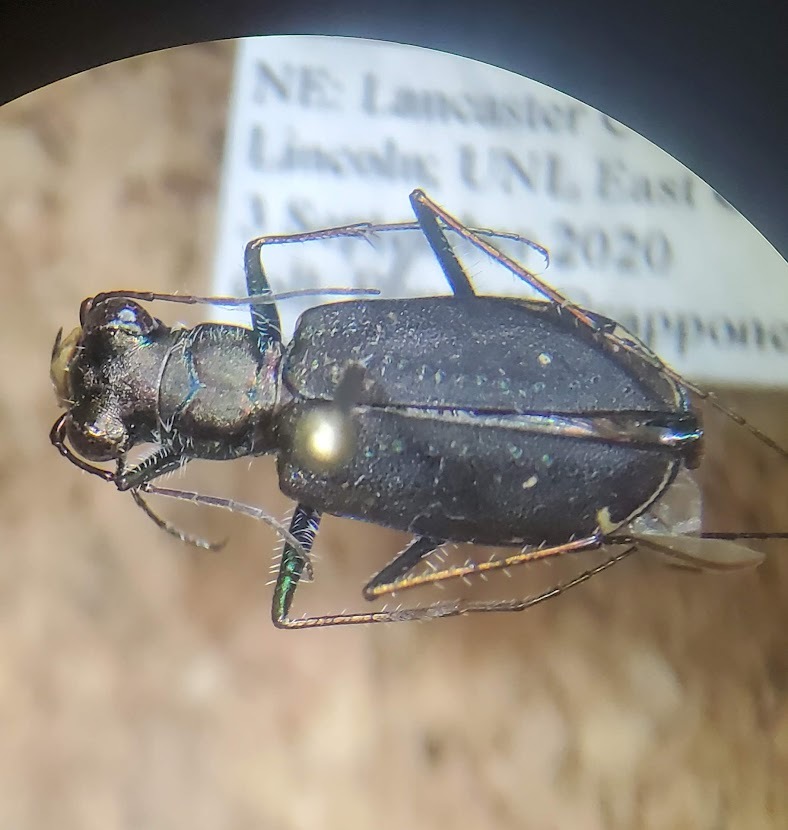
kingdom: Animalia
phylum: Arthropoda
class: Insecta
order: Coleoptera
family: Carabidae
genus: Cicindela
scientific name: Cicindela punctulata
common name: Punctured tiger beetle
